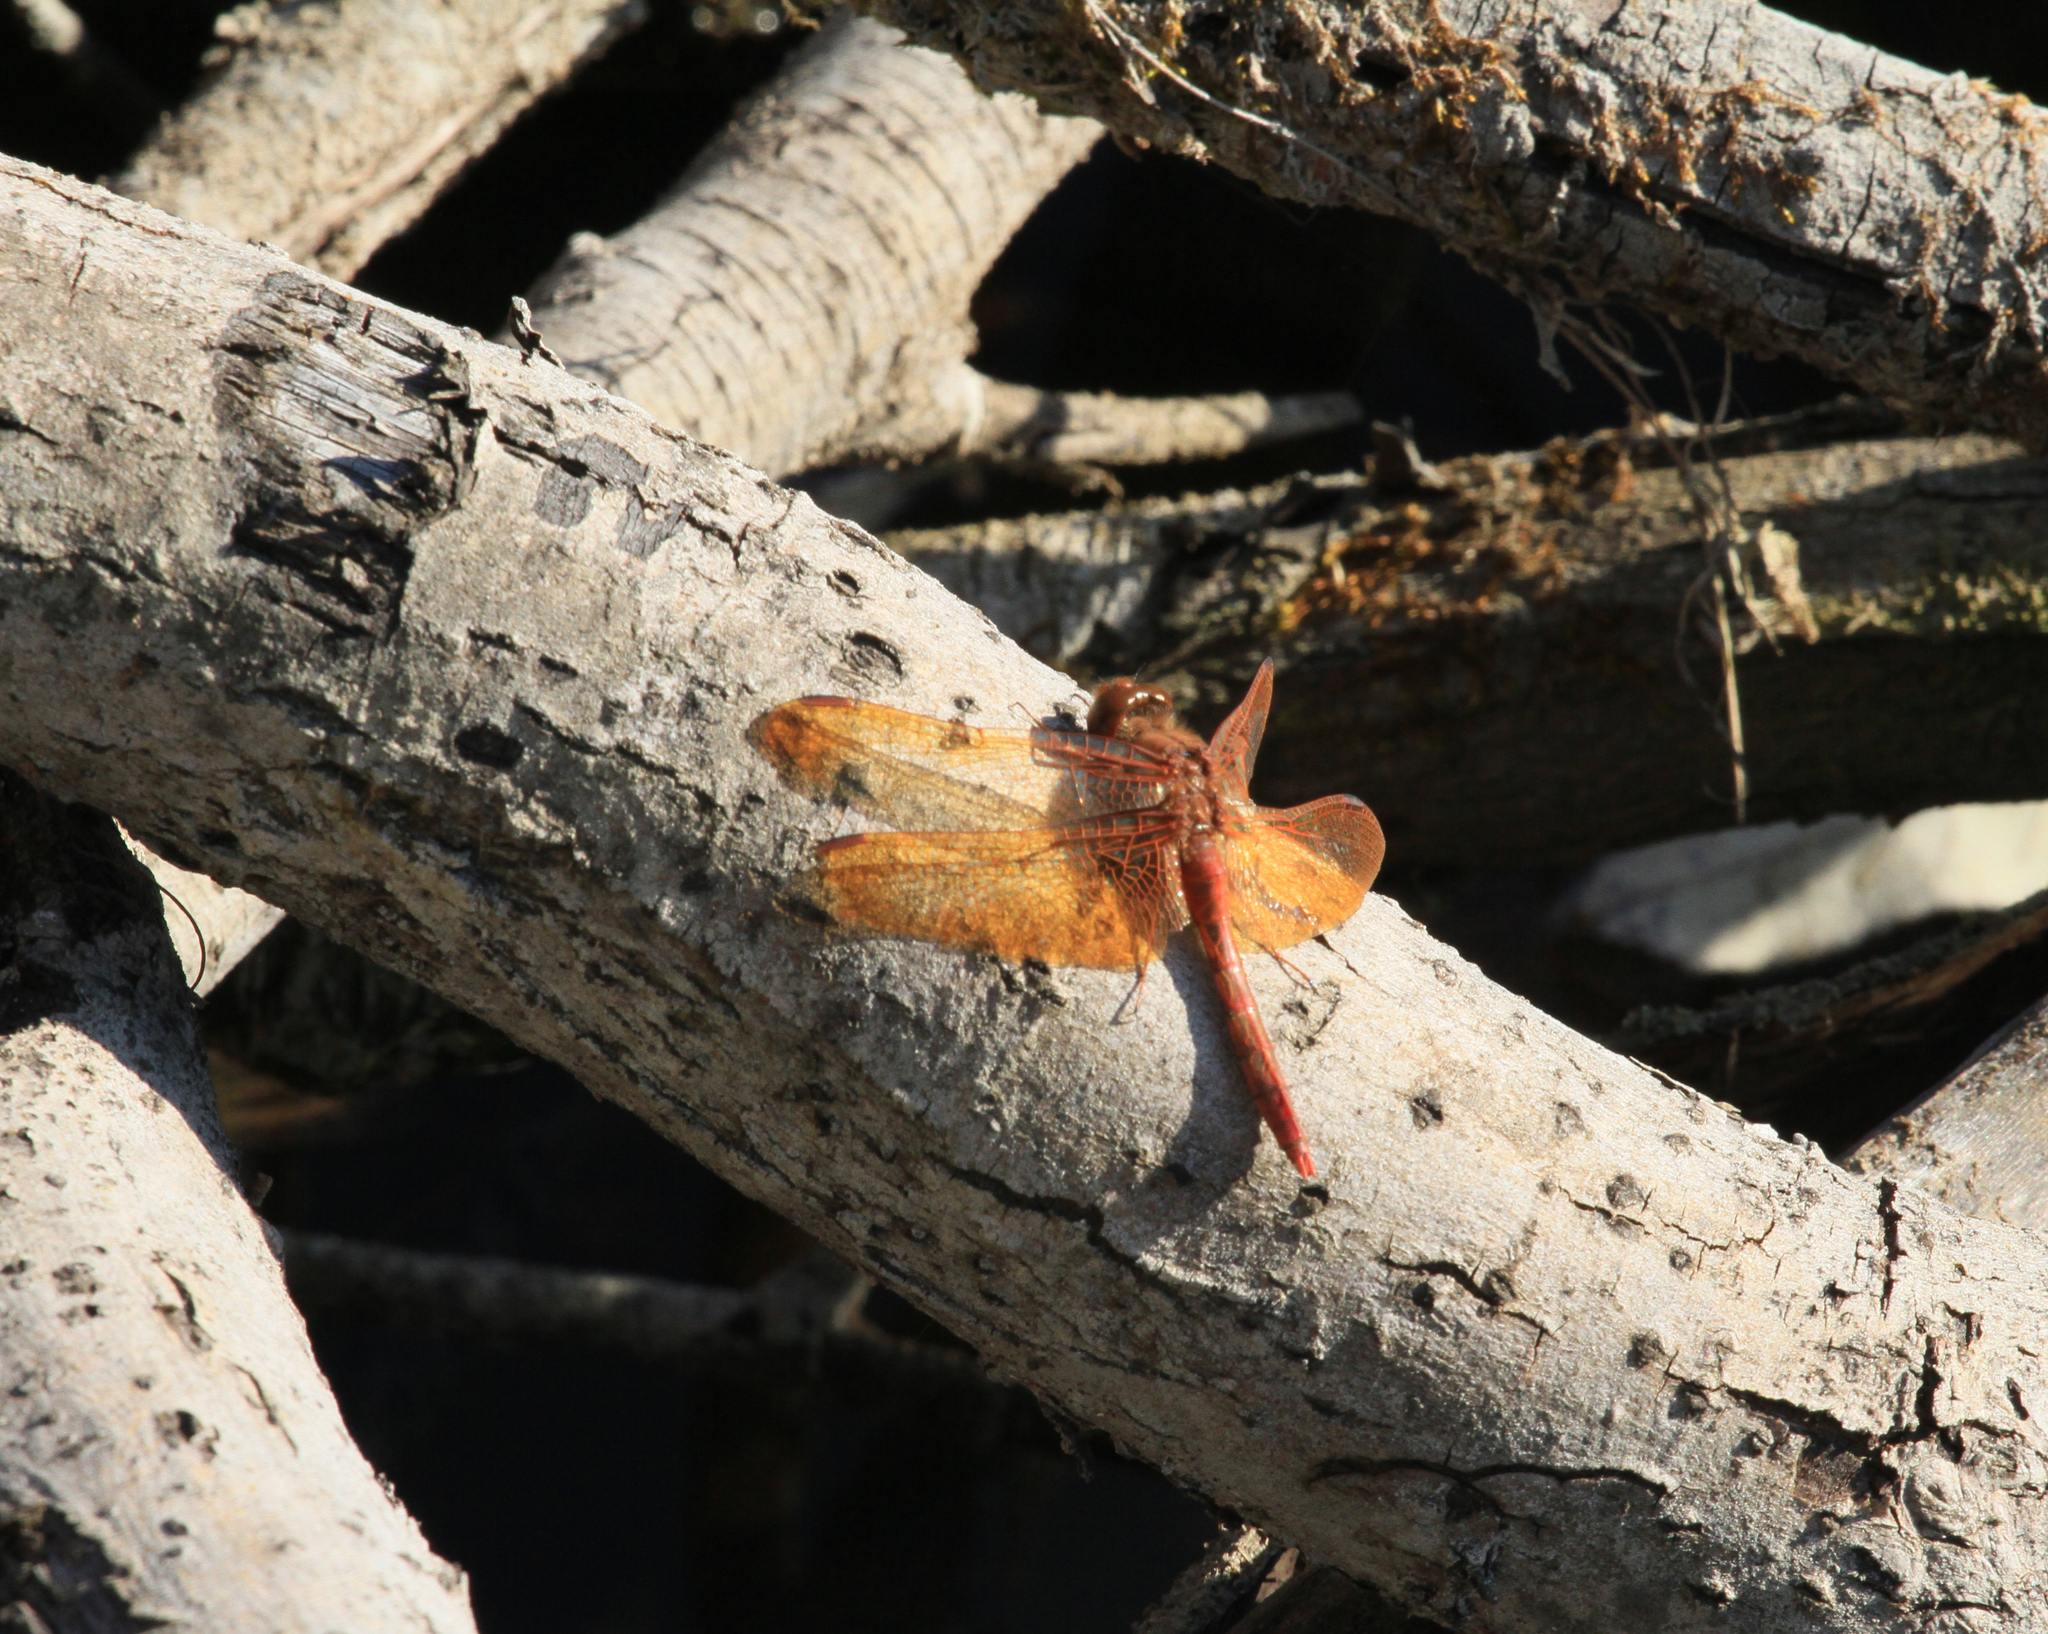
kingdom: Animalia
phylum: Arthropoda
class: Insecta
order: Odonata
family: Libellulidae
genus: Sympetrum
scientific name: Sympetrum croceolum
